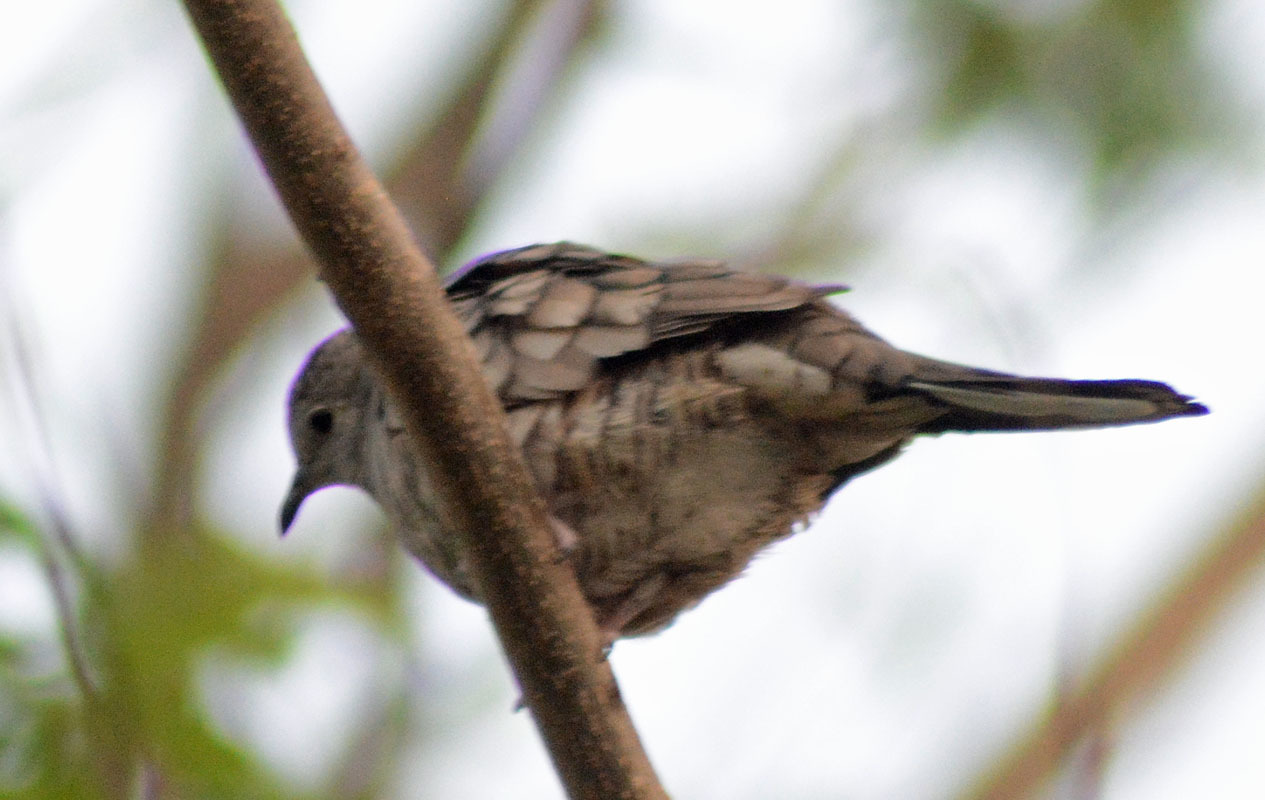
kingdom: Animalia
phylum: Chordata
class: Aves
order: Columbiformes
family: Columbidae
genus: Columbina
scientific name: Columbina inca
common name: Inca dove
